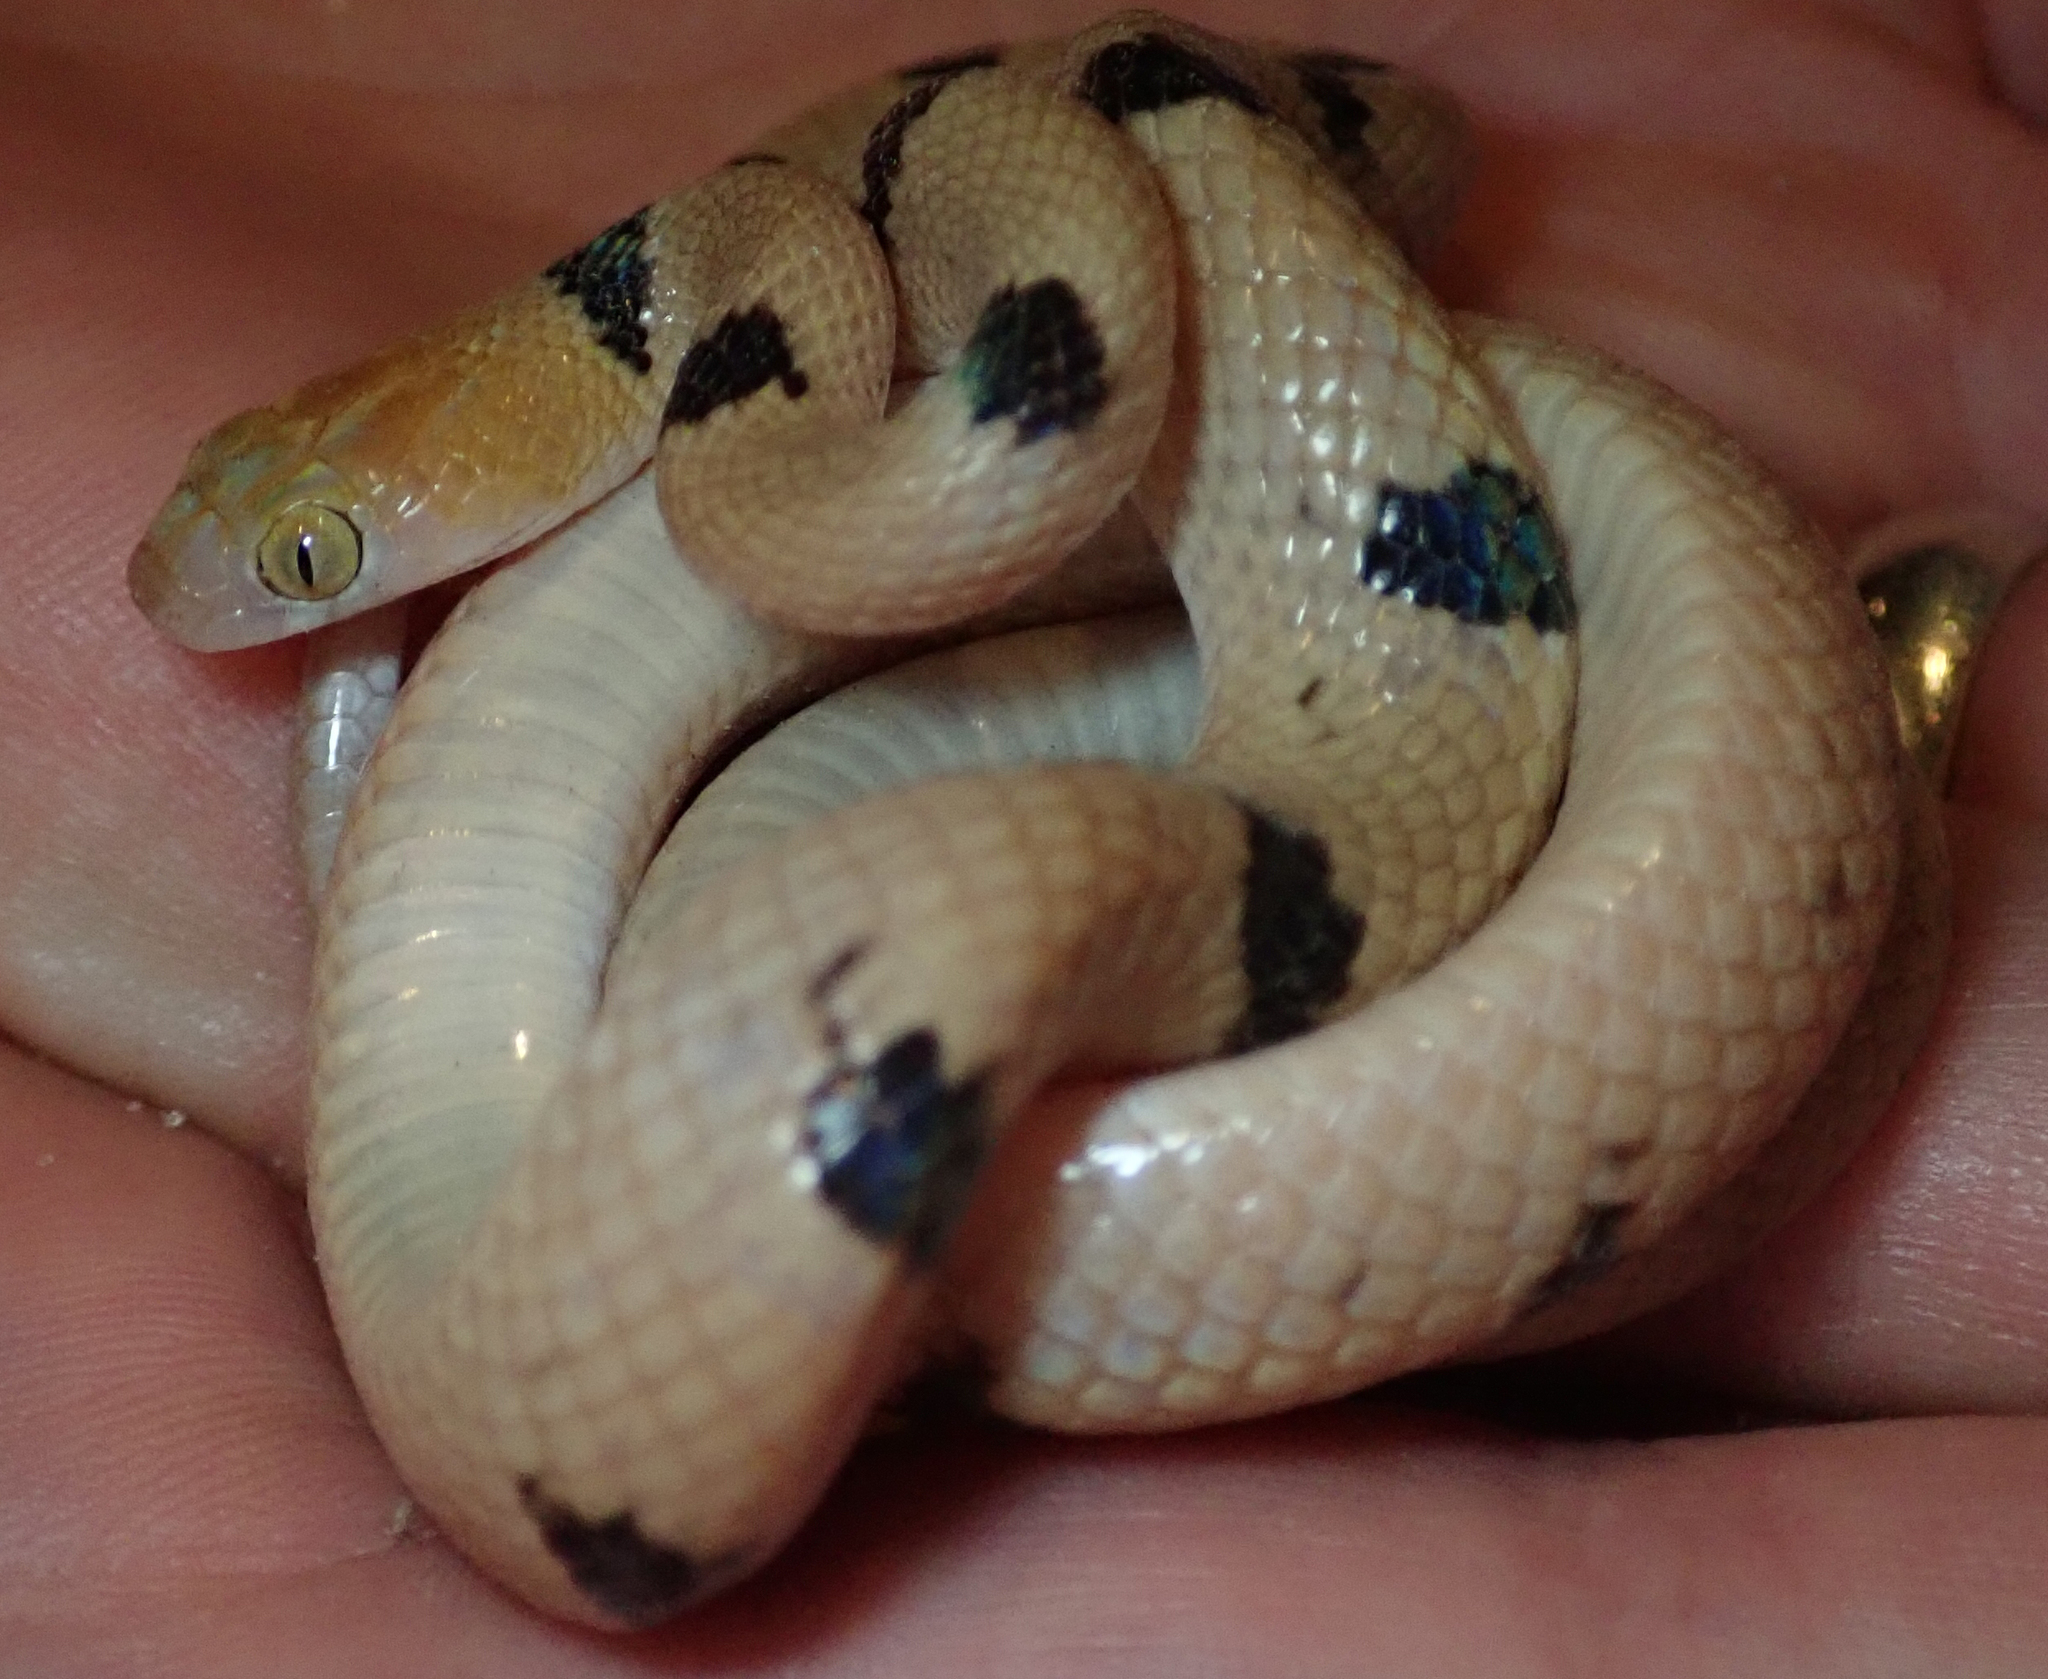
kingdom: Animalia
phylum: Chordata
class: Squamata
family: Colubridae
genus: Telescopus
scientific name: Telescopus semiannulatus
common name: Common tiger snake
